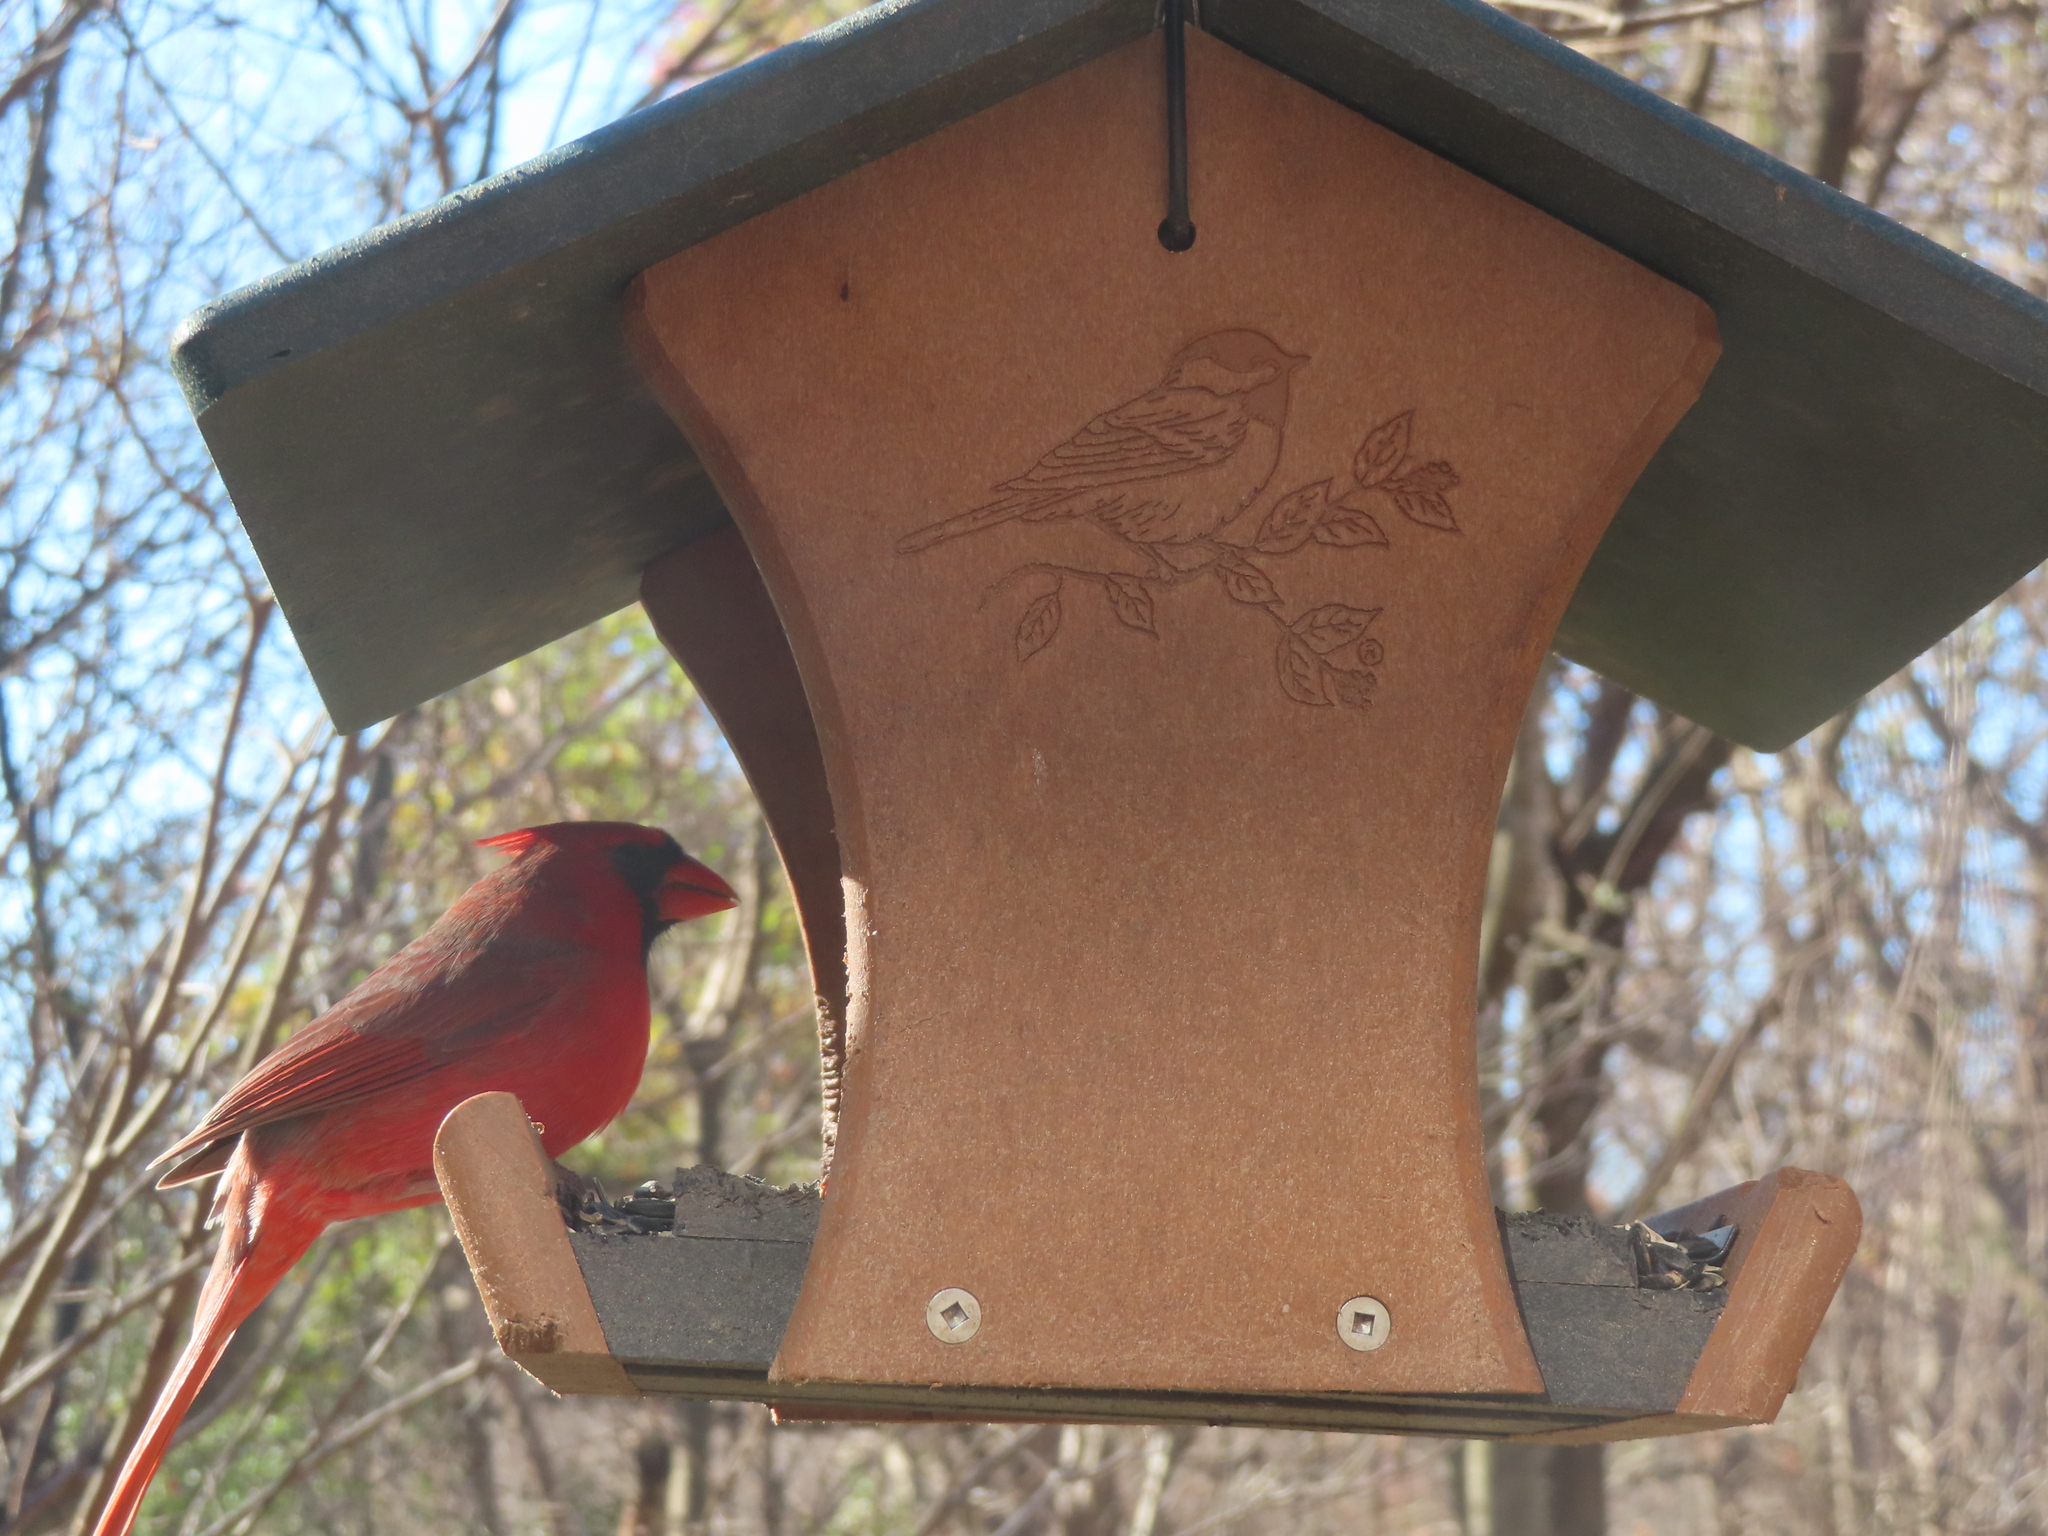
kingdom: Animalia
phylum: Chordata
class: Aves
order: Passeriformes
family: Cardinalidae
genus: Cardinalis
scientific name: Cardinalis cardinalis
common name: Northern cardinal
